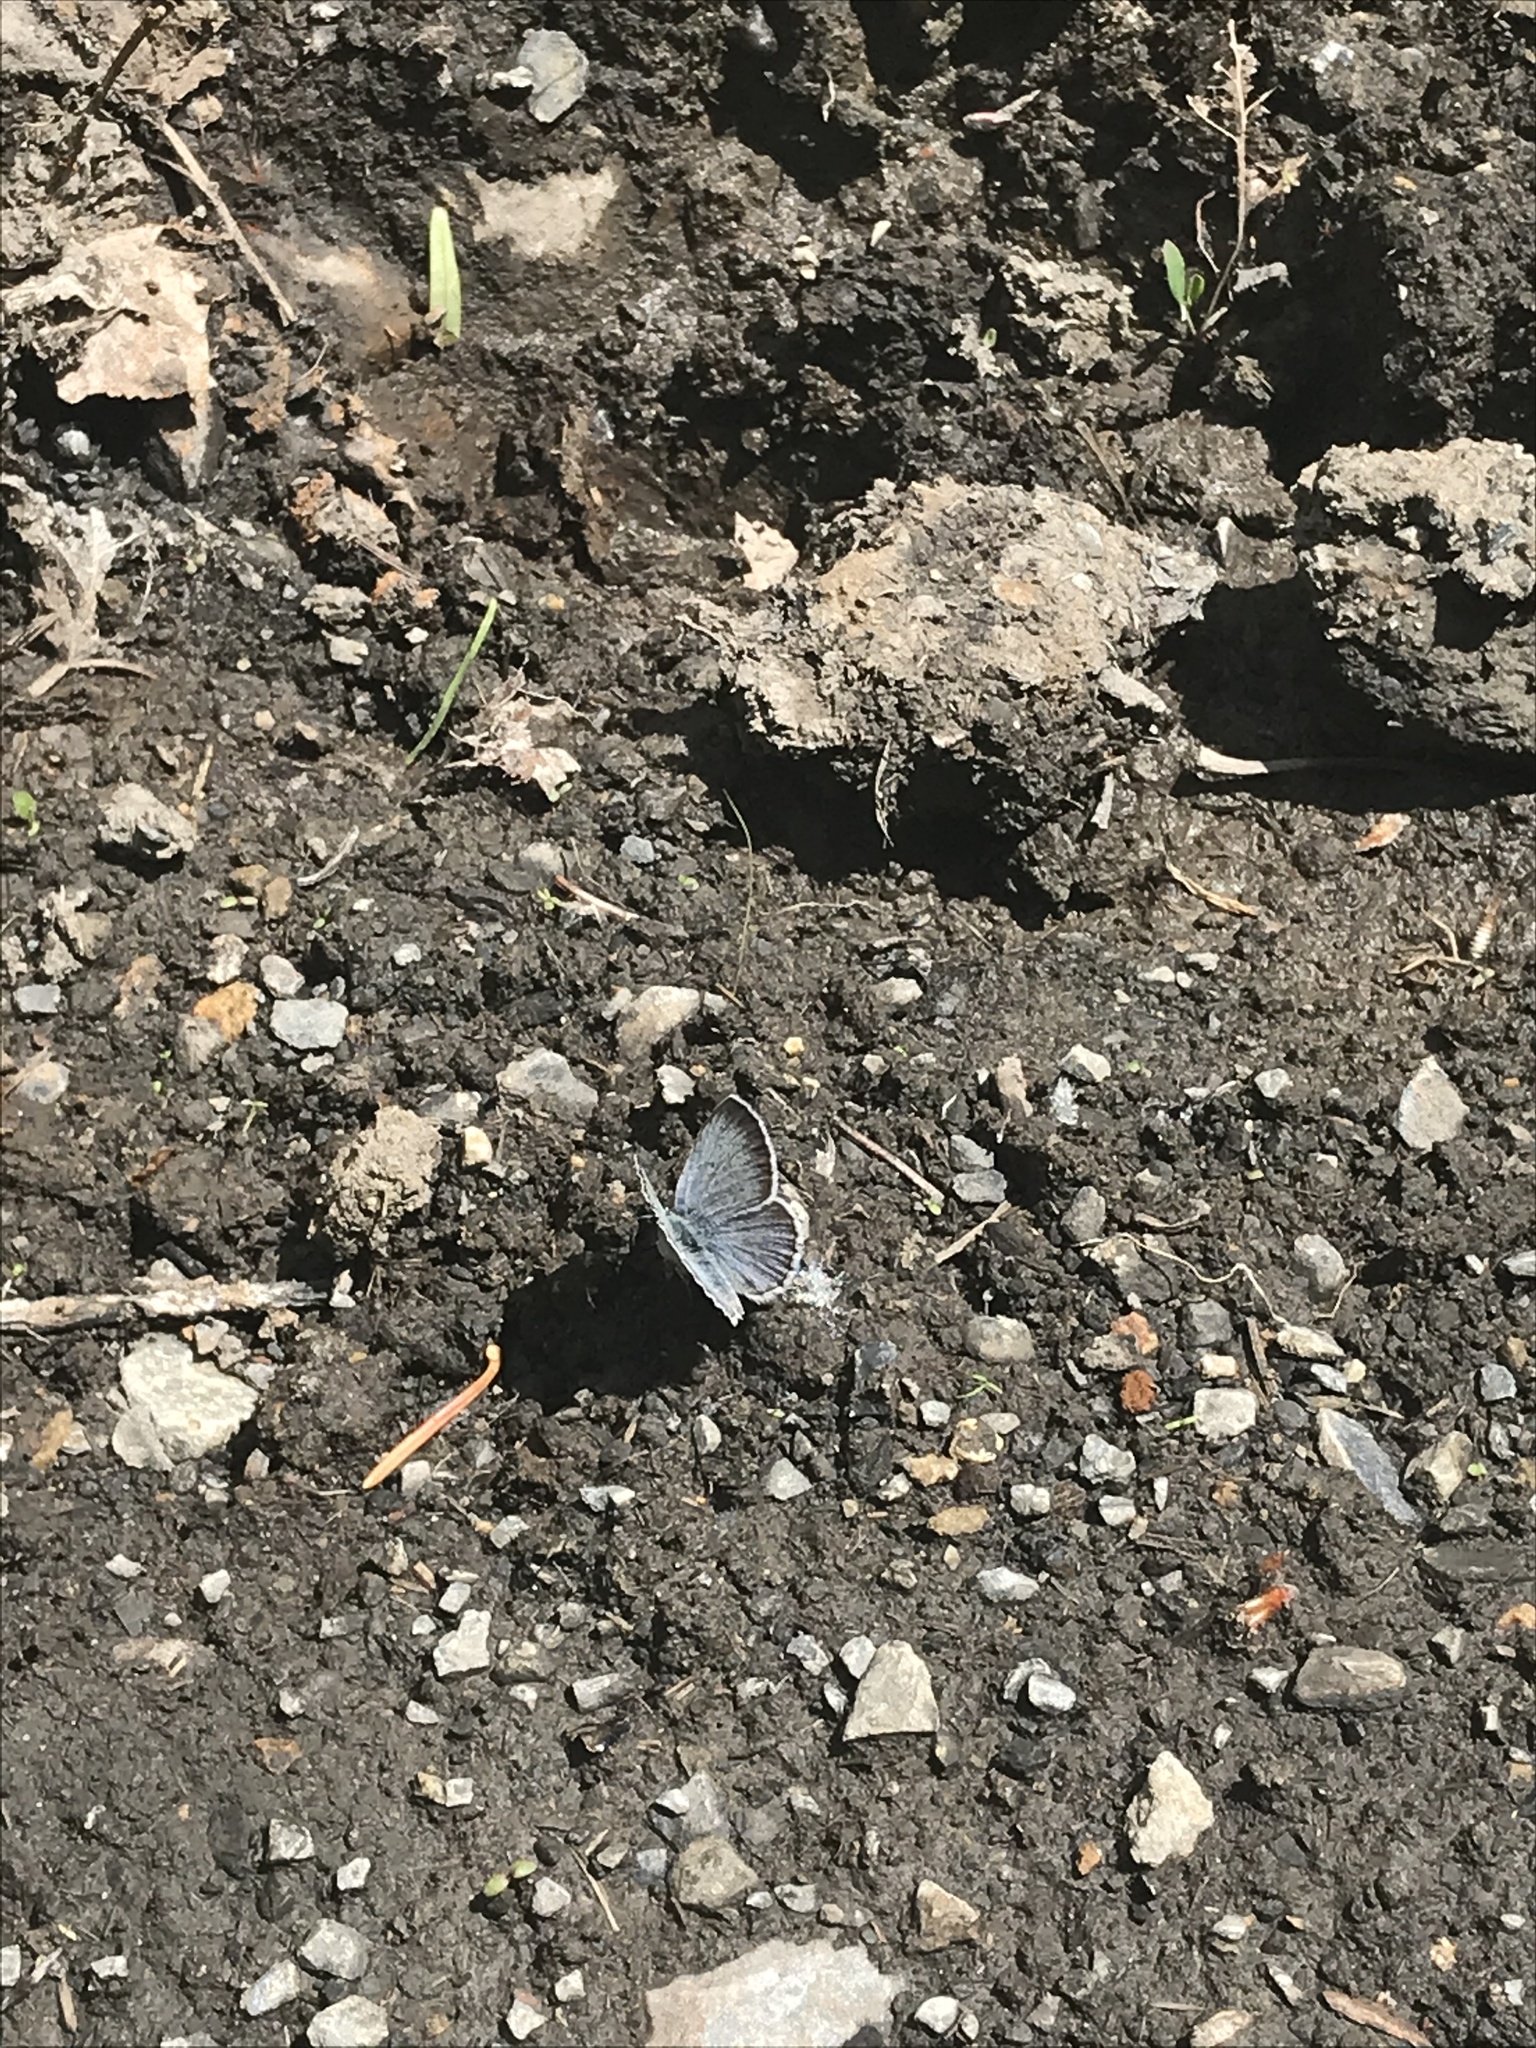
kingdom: Animalia
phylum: Arthropoda
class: Insecta
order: Lepidoptera
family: Lycaenidae
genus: Icaricia
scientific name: Icaricia icarioides
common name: Boisduval's blue
